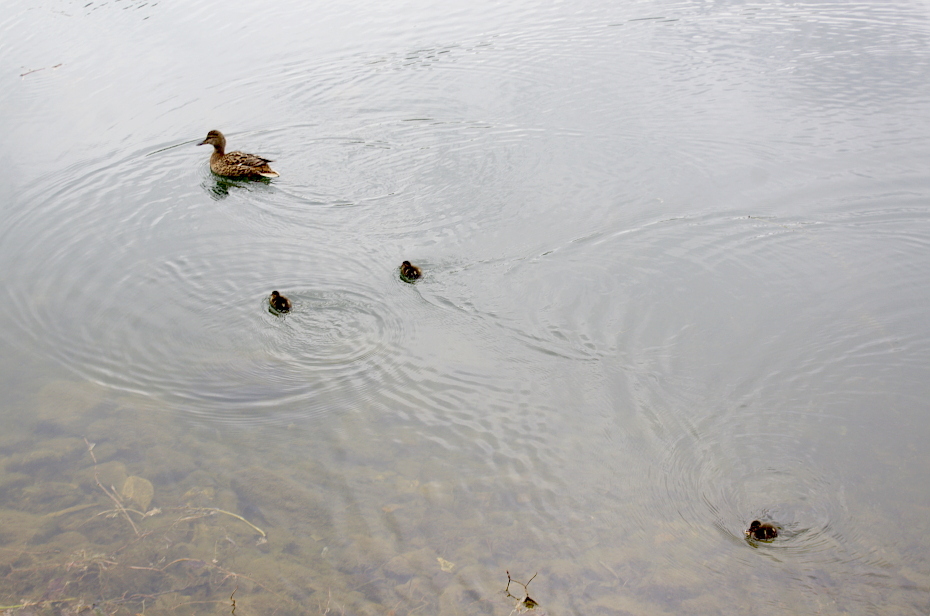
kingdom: Animalia
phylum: Chordata
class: Aves
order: Anseriformes
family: Anatidae
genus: Anas
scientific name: Anas platyrhynchos
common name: Mallard
